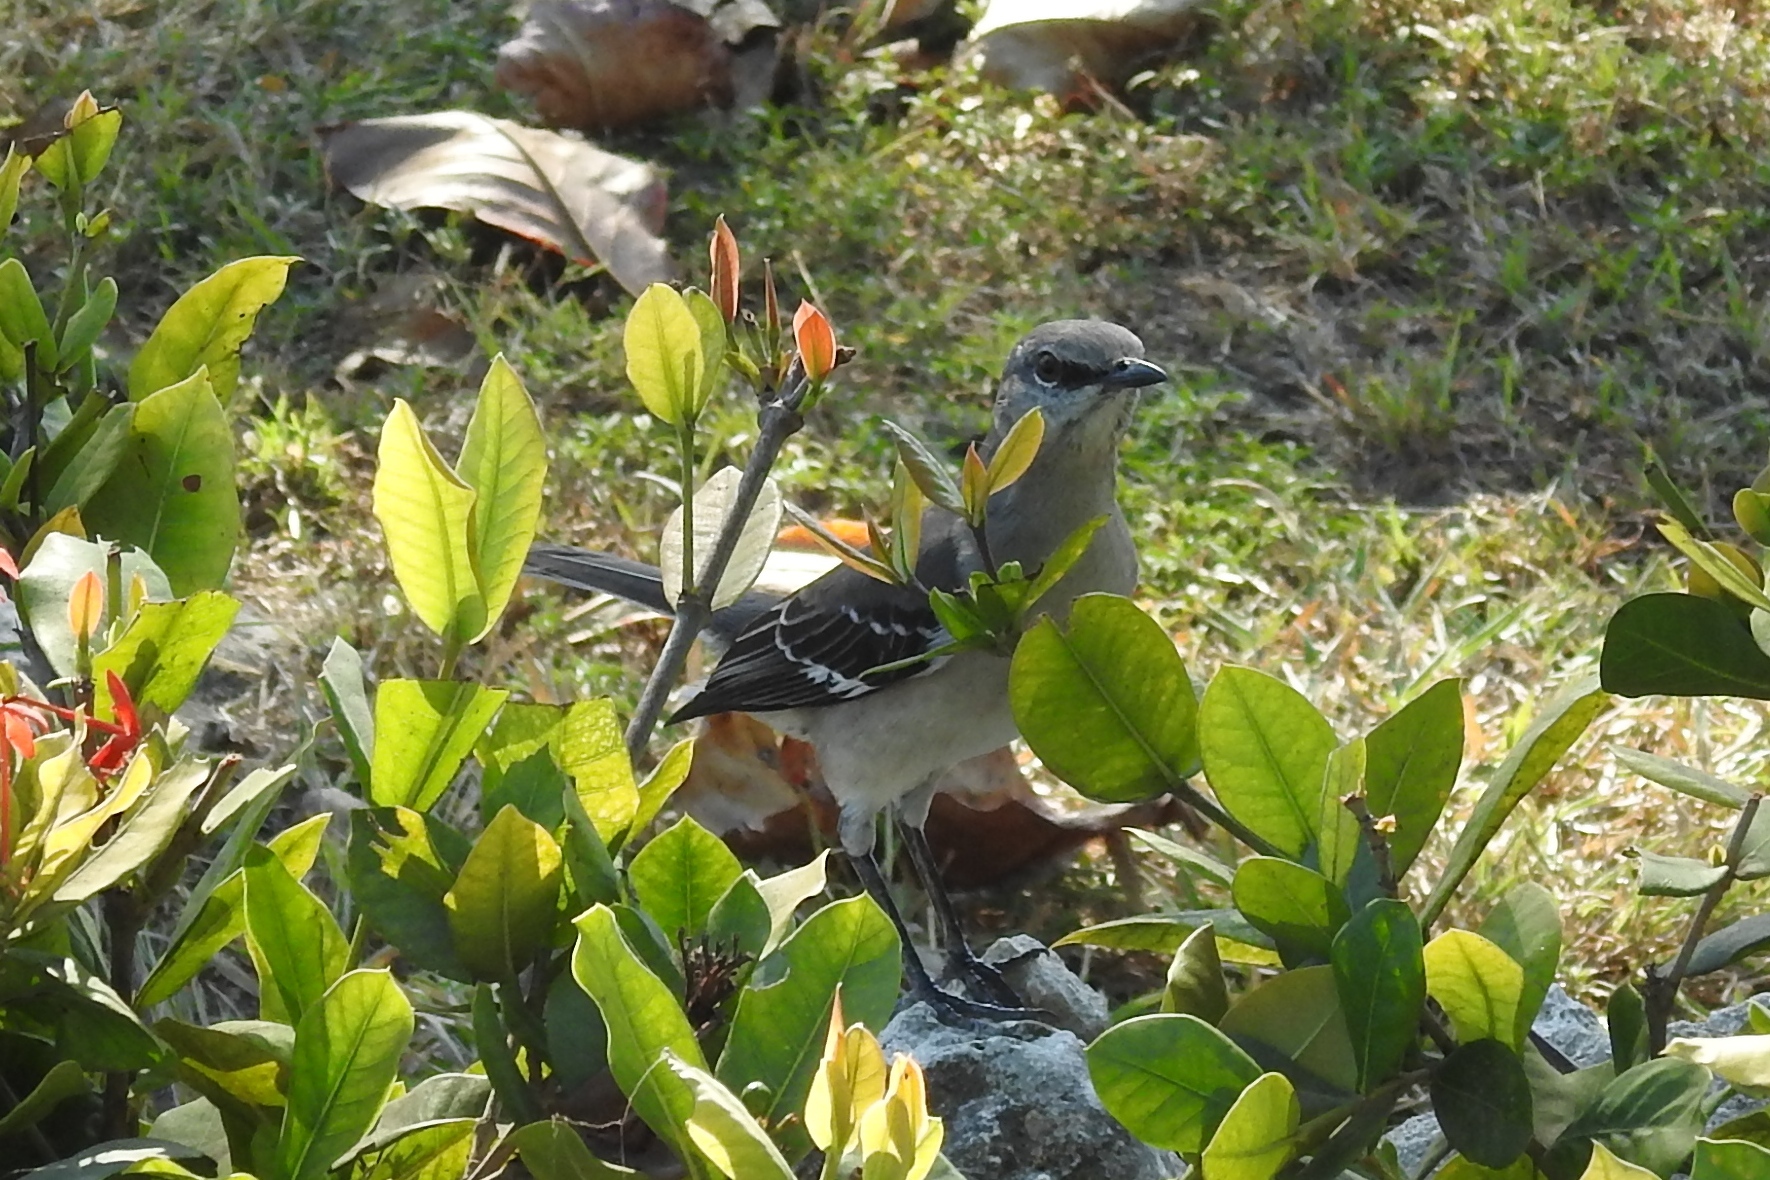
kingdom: Animalia
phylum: Chordata
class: Aves
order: Passeriformes
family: Mimidae
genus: Mimus
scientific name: Mimus polyglottos
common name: Northern mockingbird
